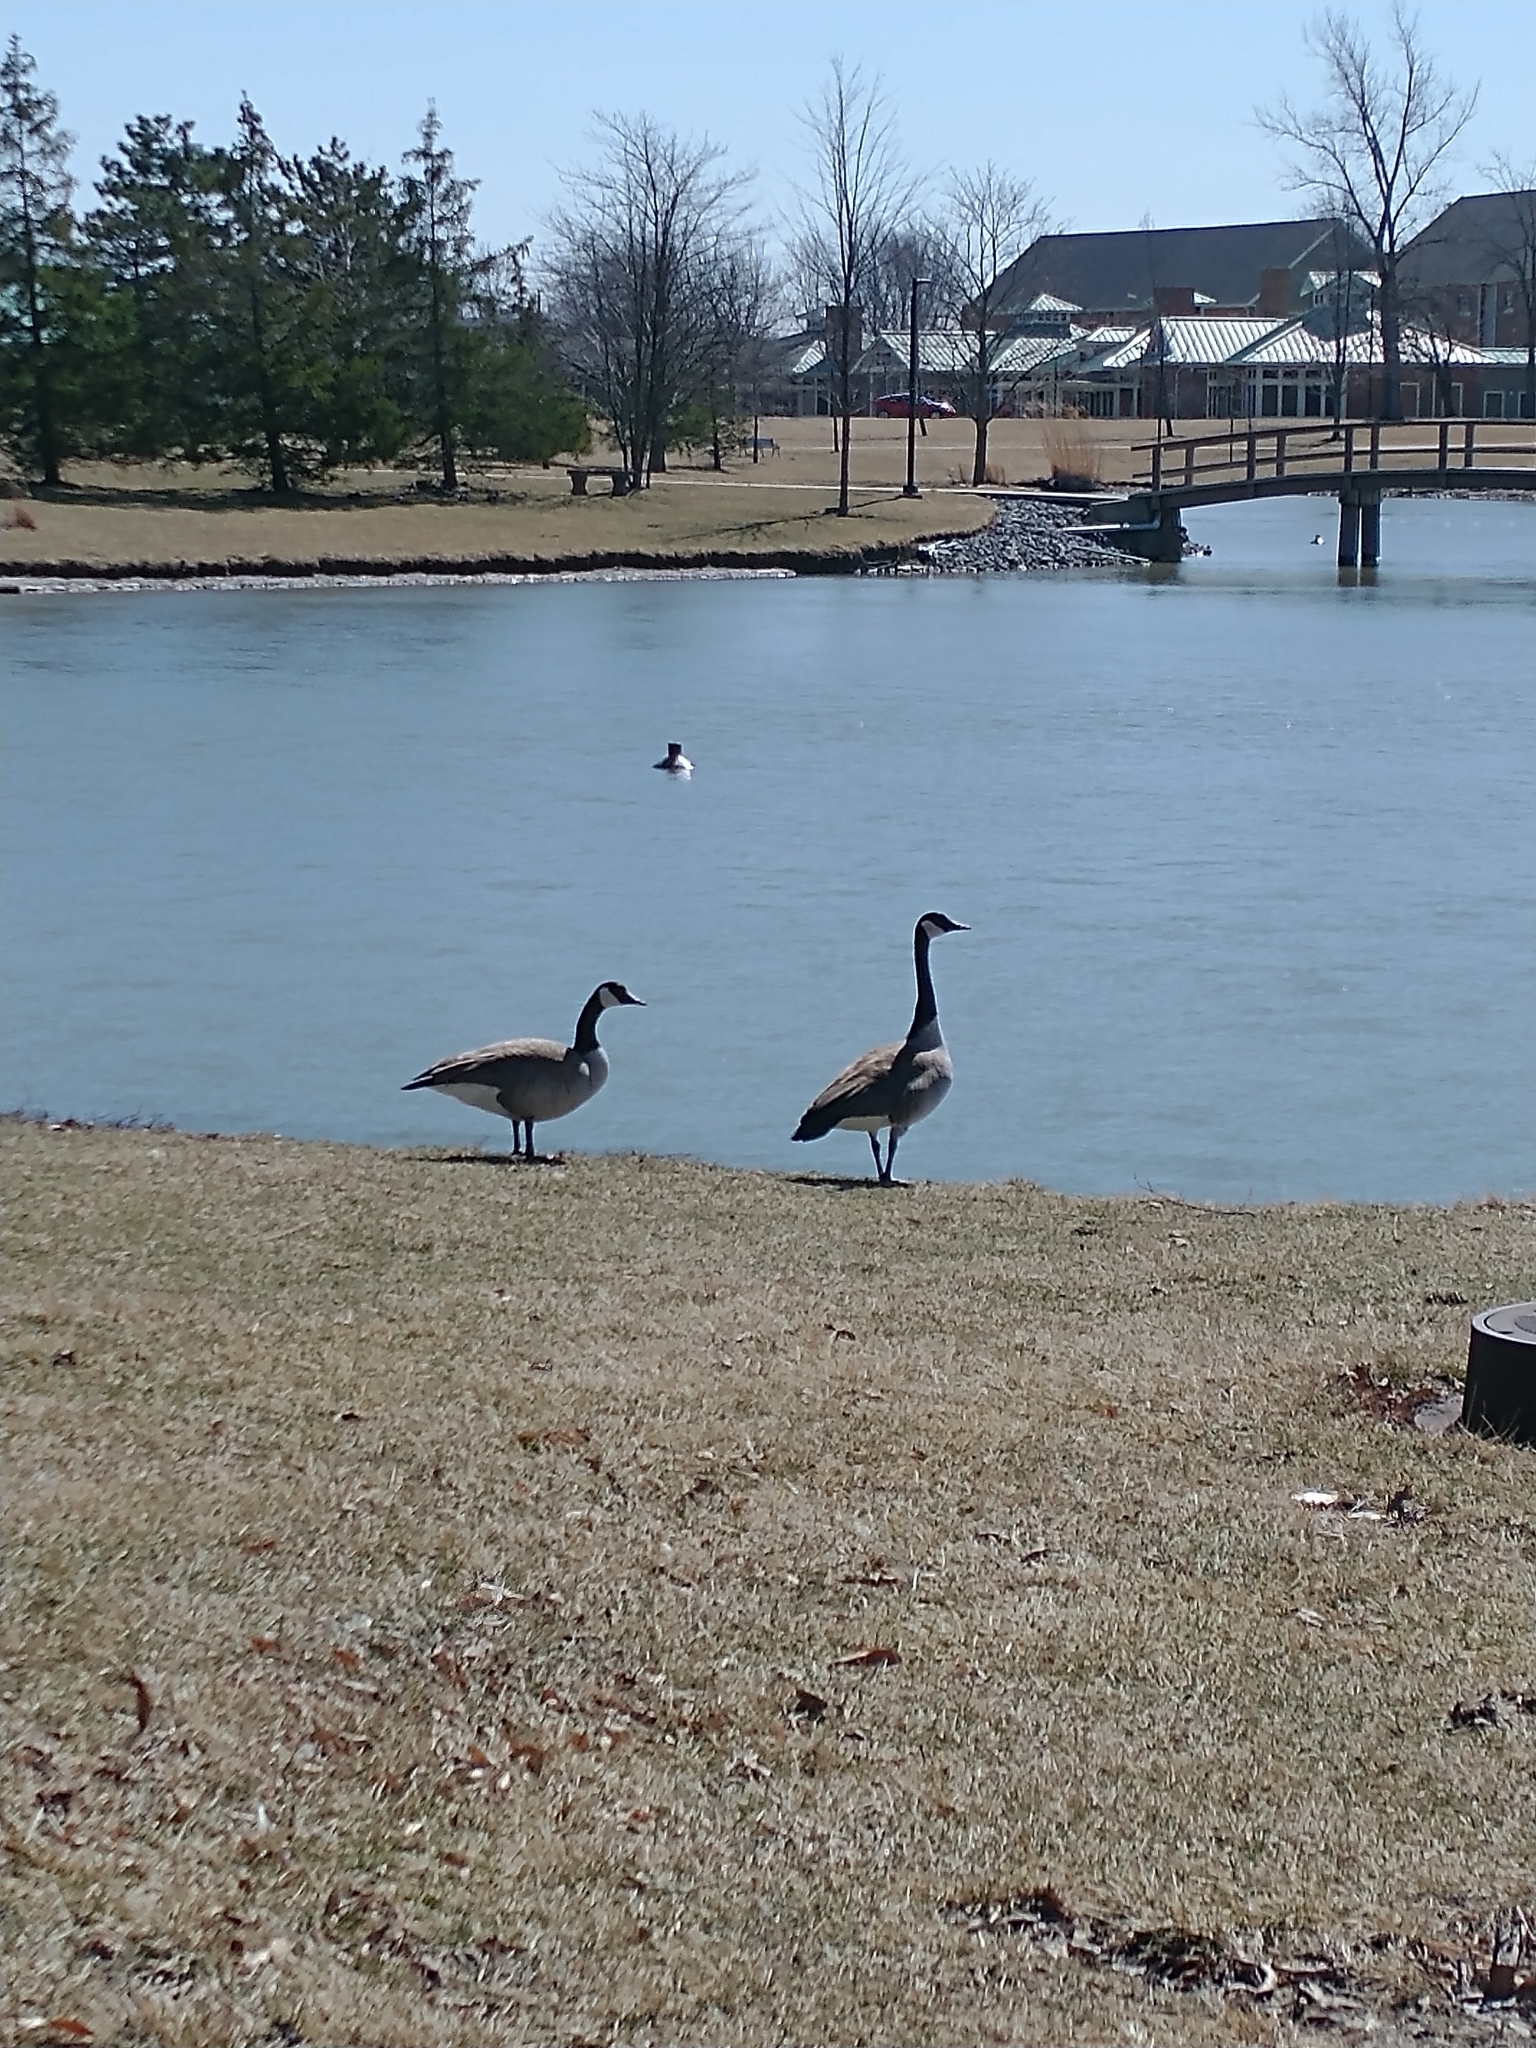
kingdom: Animalia
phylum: Chordata
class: Aves
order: Anseriformes
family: Anatidae
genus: Branta
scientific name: Branta canadensis
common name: Canada goose
